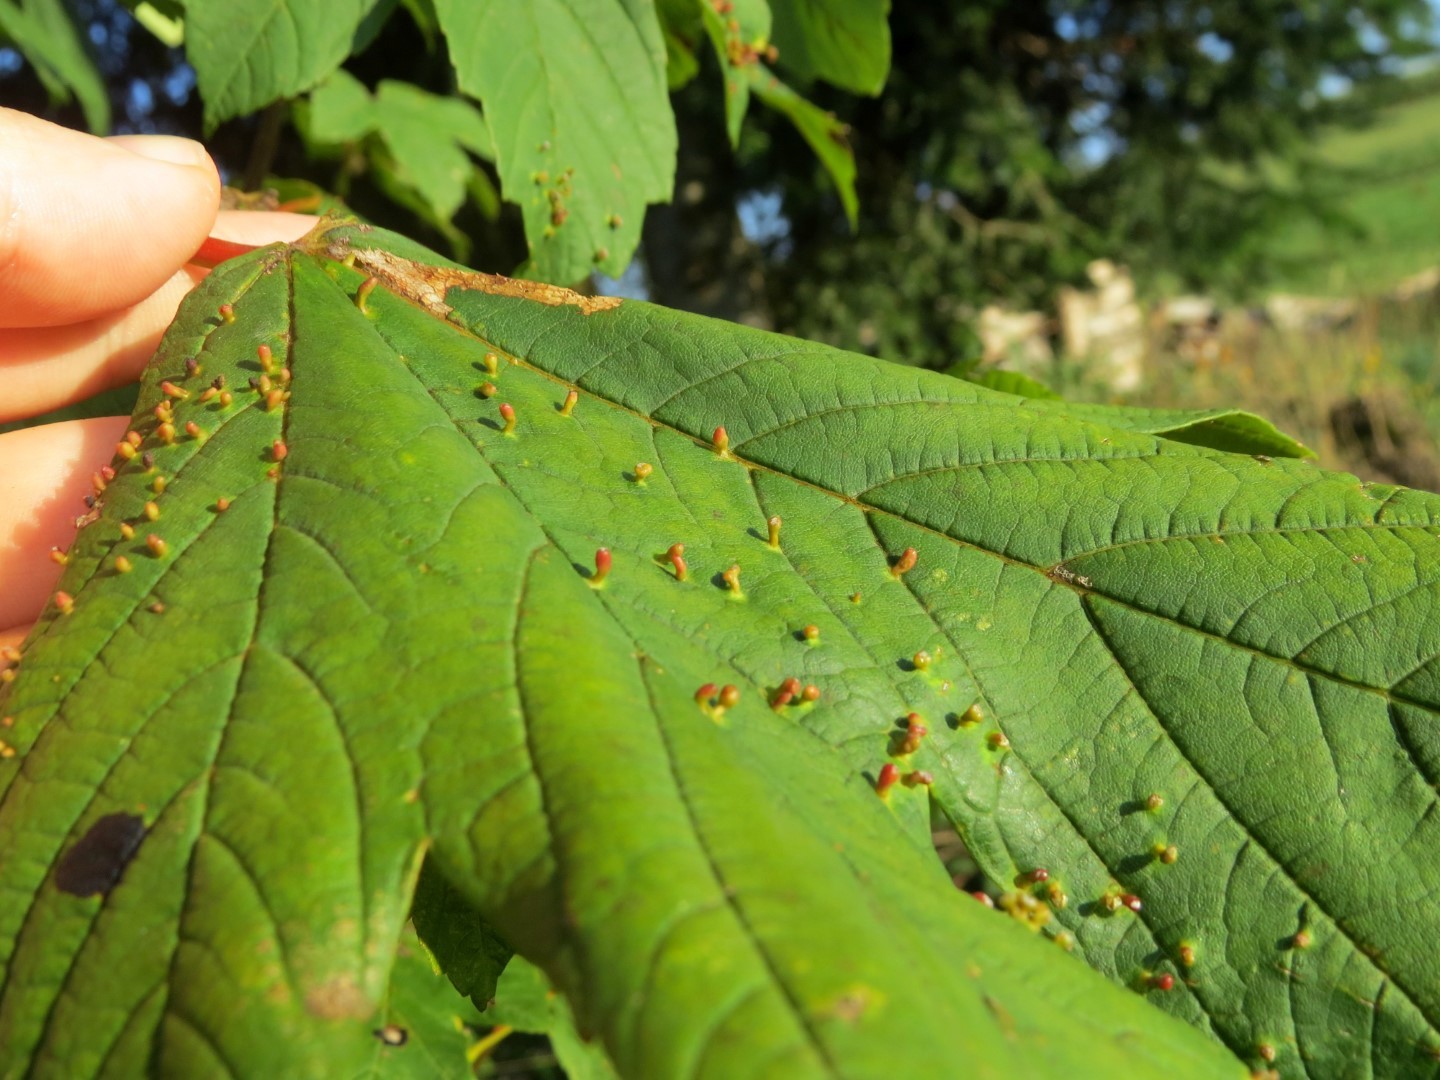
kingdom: Animalia
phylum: Arthropoda
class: Arachnida
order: Trombidiformes
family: Eriophyidae
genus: Aceria
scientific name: Aceria cephaloneus
